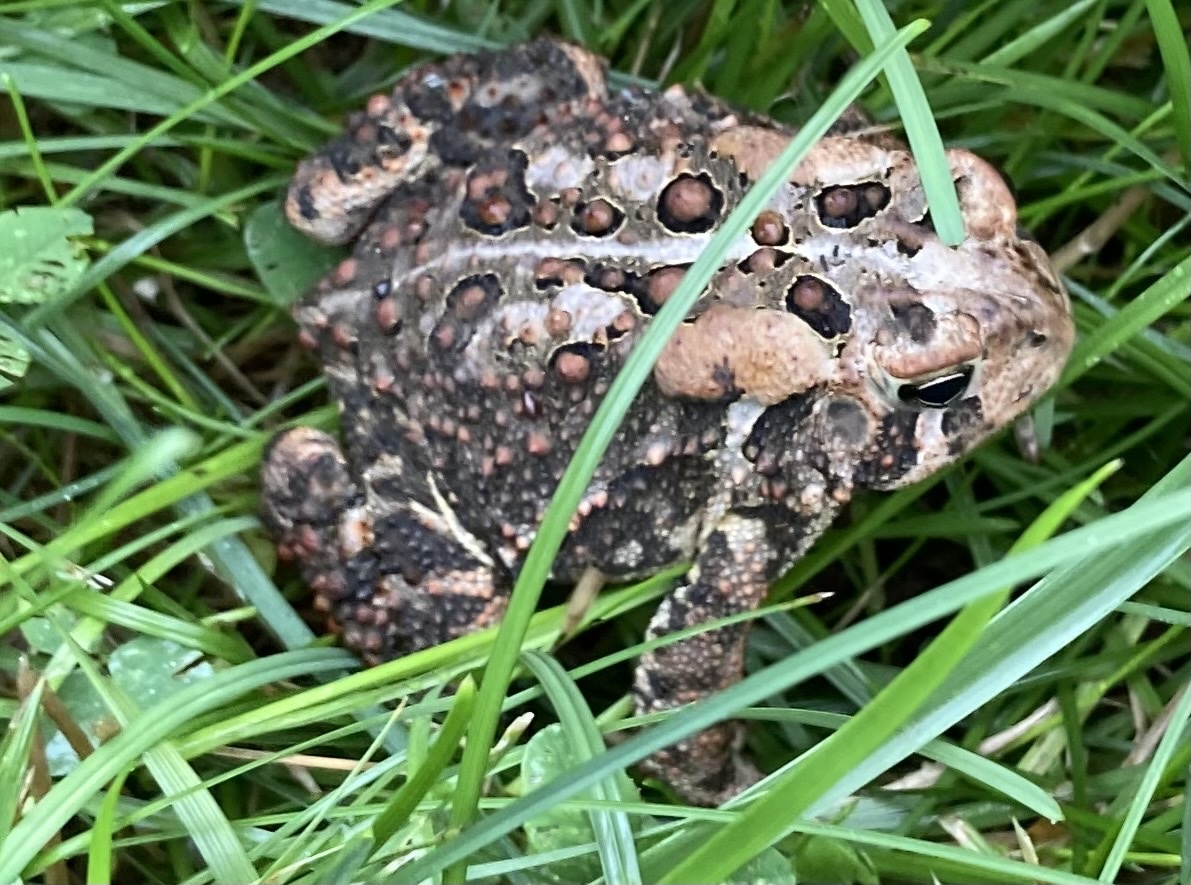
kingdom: Animalia
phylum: Chordata
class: Amphibia
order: Anura
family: Bufonidae
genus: Anaxyrus
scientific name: Anaxyrus americanus
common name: American toad
